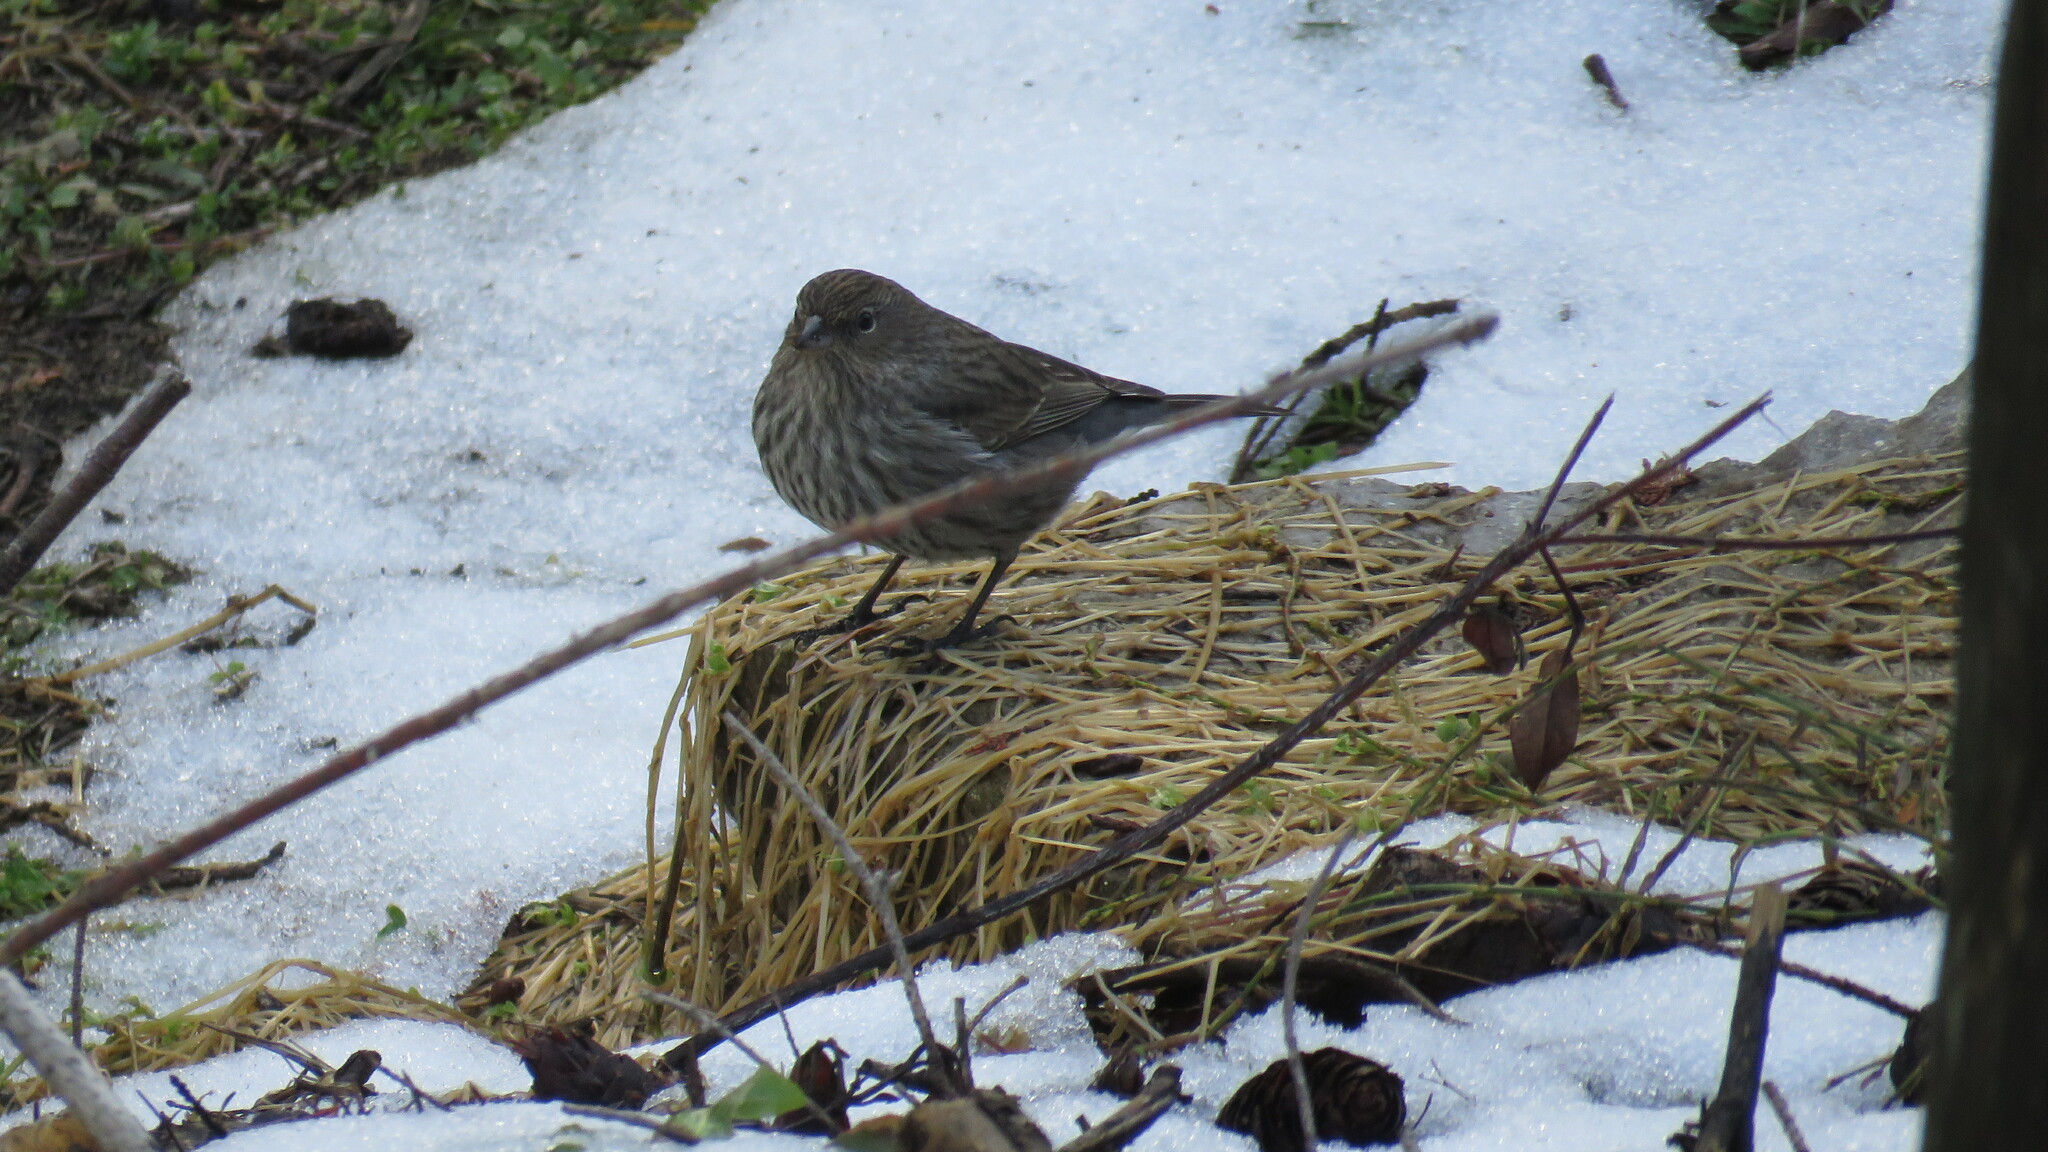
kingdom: Animalia
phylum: Chordata
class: Aves
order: Passeriformes
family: Thraupidae
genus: Geospizopsis
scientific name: Geospizopsis unicolor
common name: Plumbeous sierra-finch
